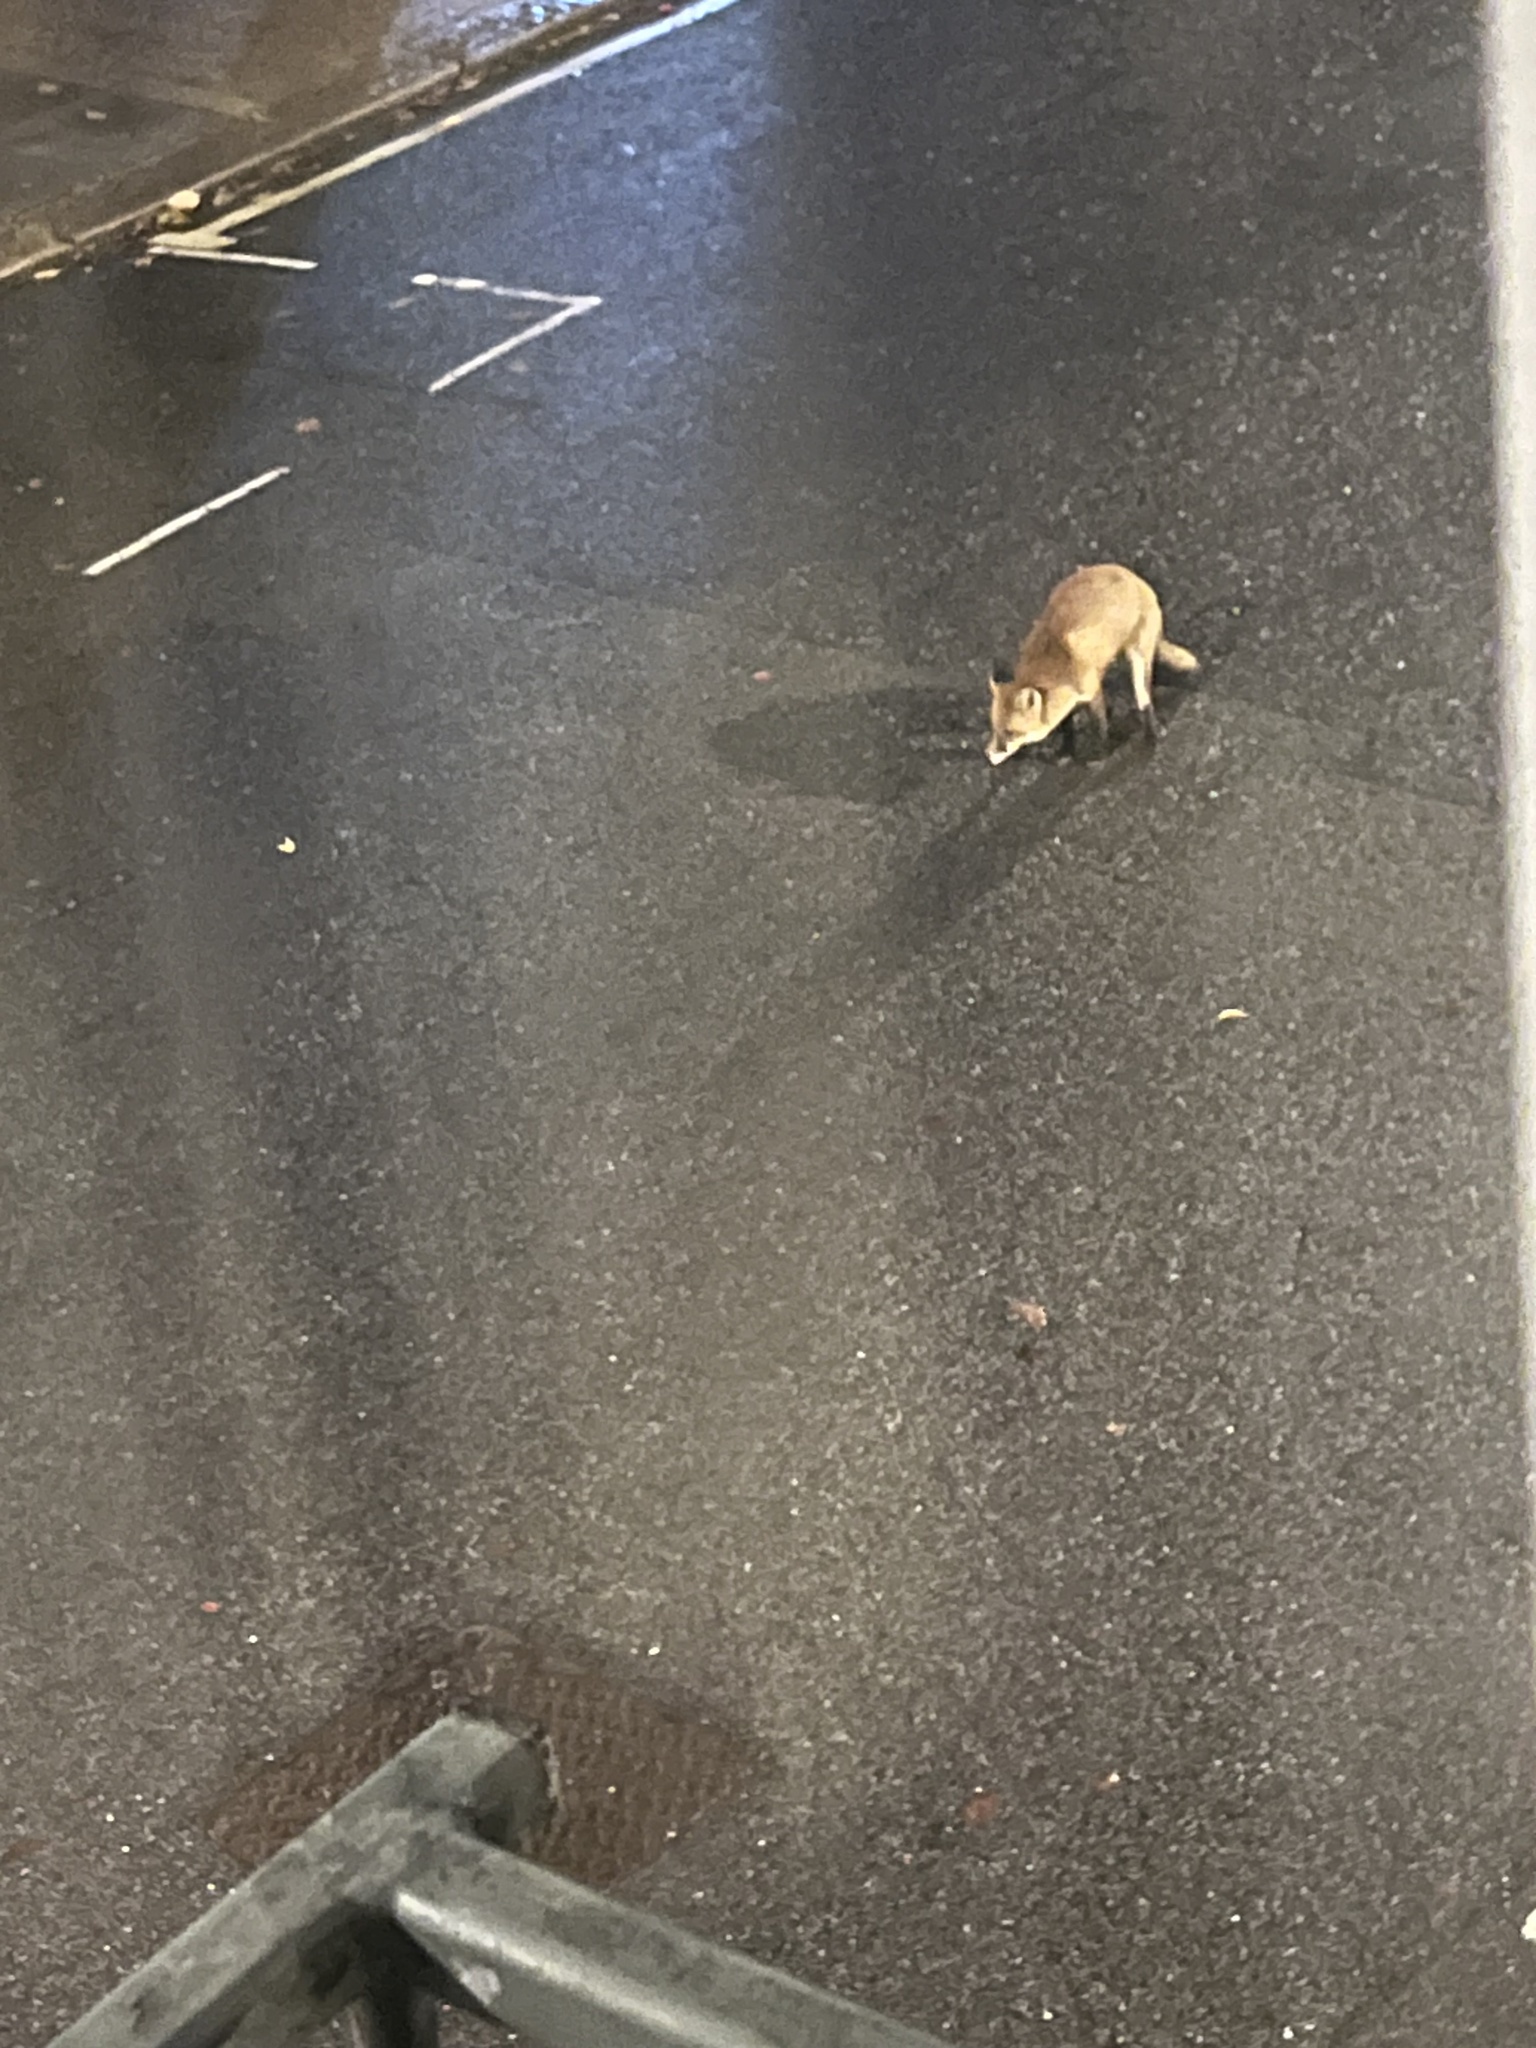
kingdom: Animalia
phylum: Chordata
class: Mammalia
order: Carnivora
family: Canidae
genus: Vulpes
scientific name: Vulpes vulpes
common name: Red fox
